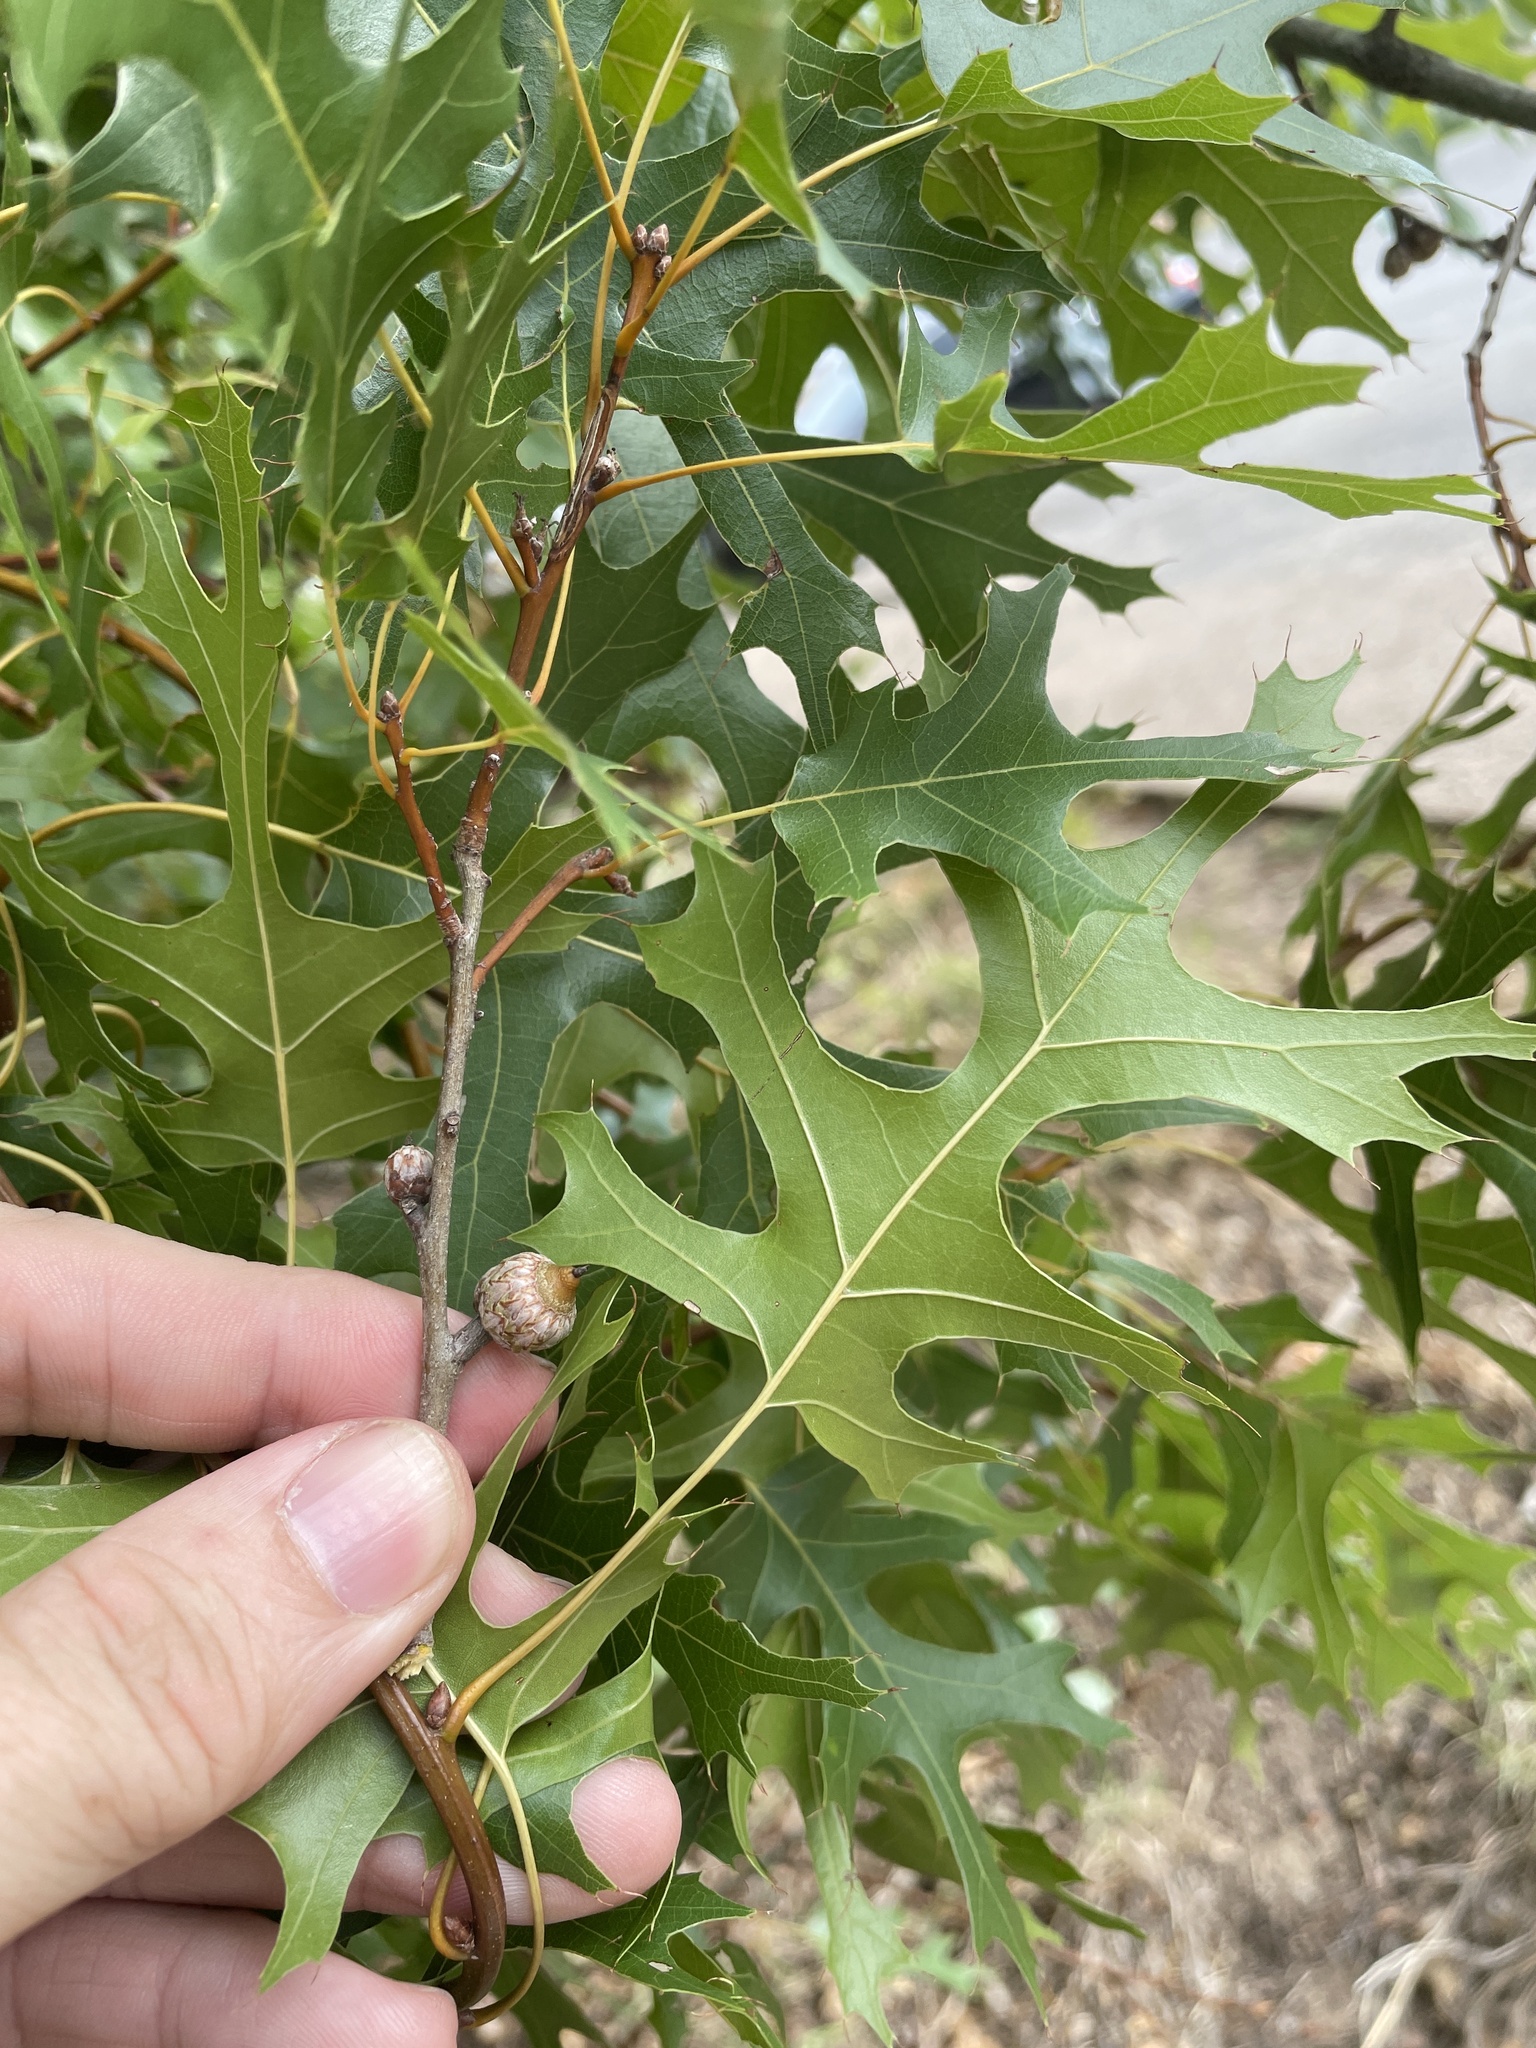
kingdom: Plantae
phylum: Tracheophyta
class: Magnoliopsida
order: Fagales
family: Fagaceae
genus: Quercus
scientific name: Quercus buckleyi
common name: Buckley oak
